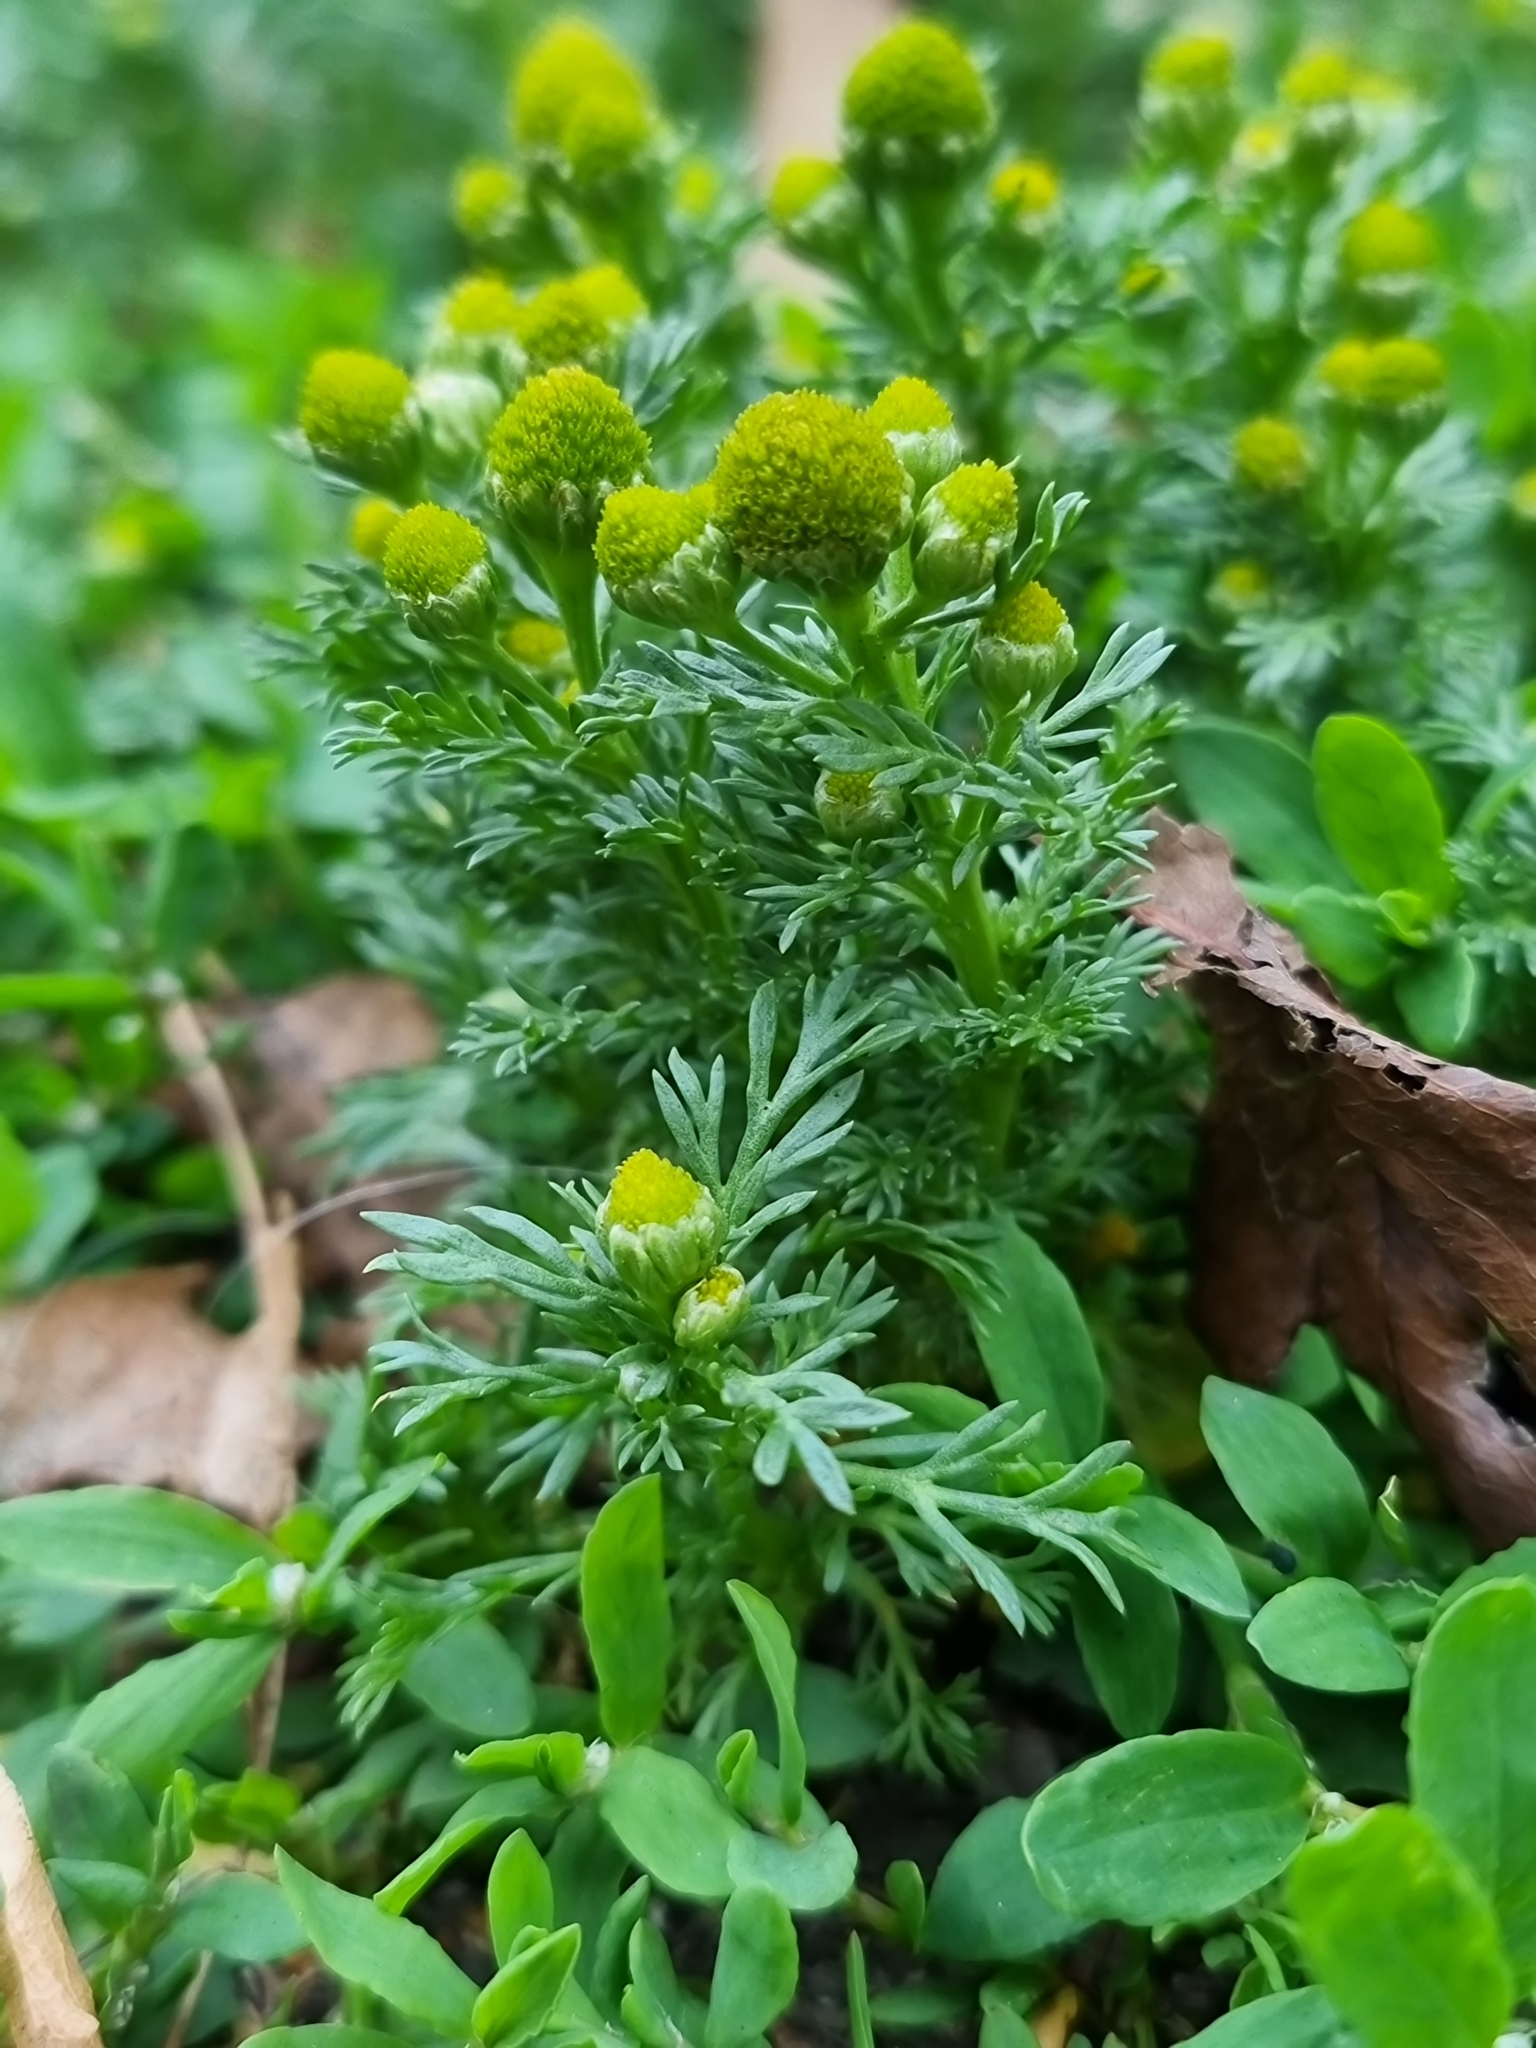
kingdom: Plantae
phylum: Tracheophyta
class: Magnoliopsida
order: Asterales
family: Asteraceae
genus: Matricaria
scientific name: Matricaria discoidea
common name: Disc mayweed
